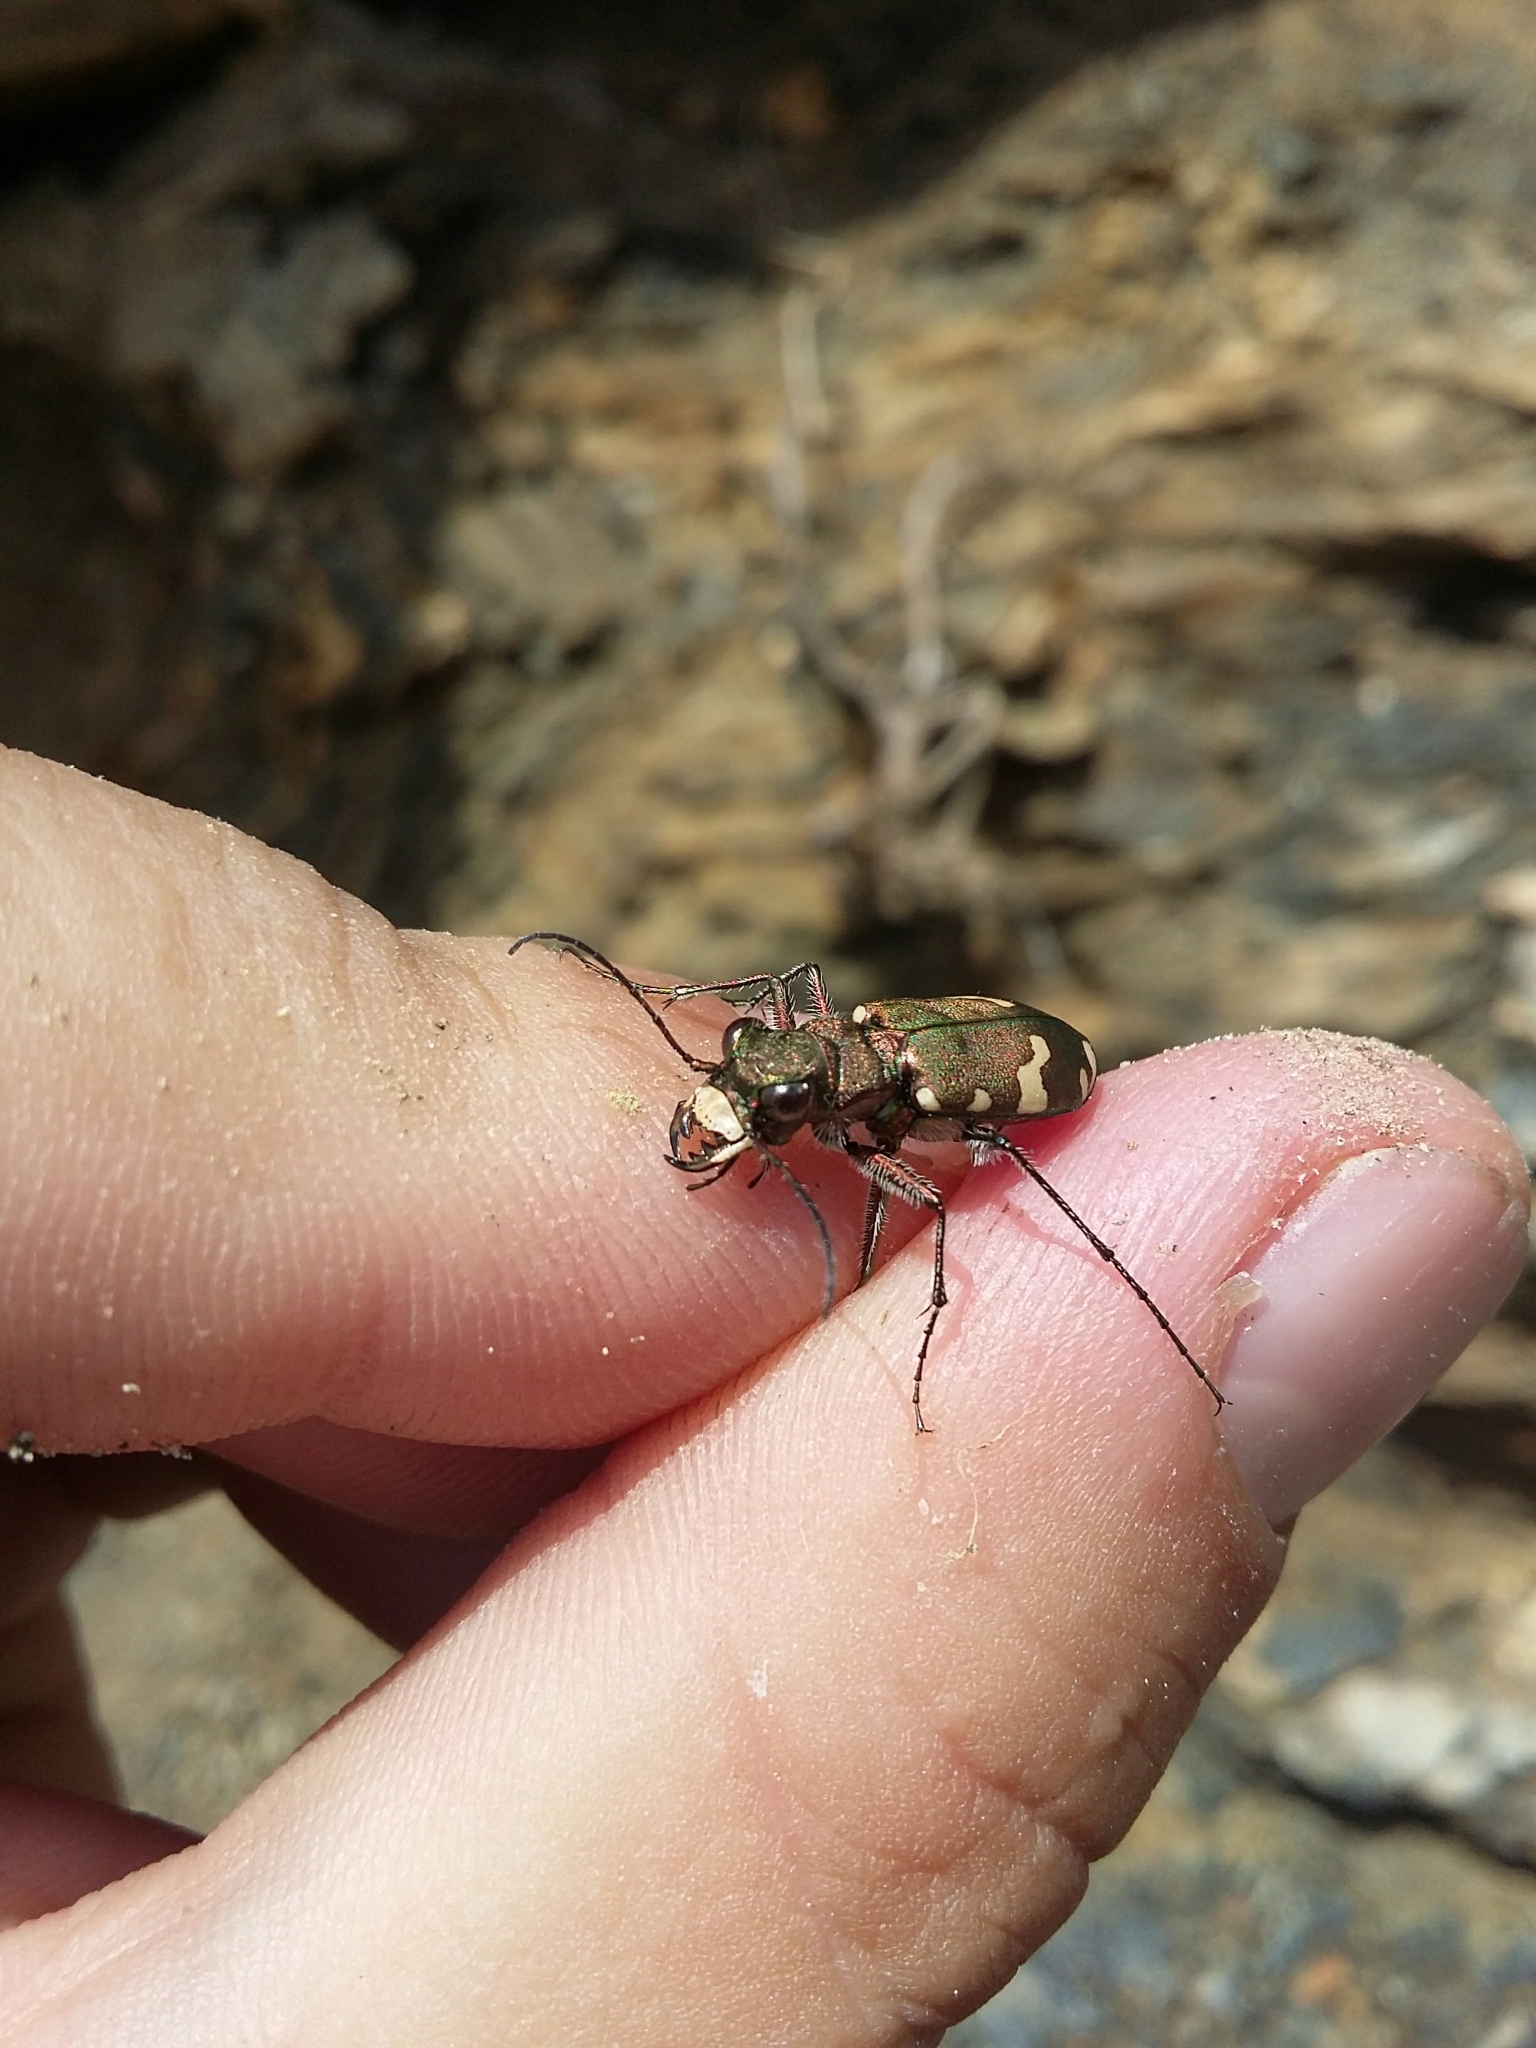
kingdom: Animalia
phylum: Arthropoda
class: Insecta
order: Coleoptera
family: Carabidae
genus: Cicindela
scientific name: Cicindela sylvicola
